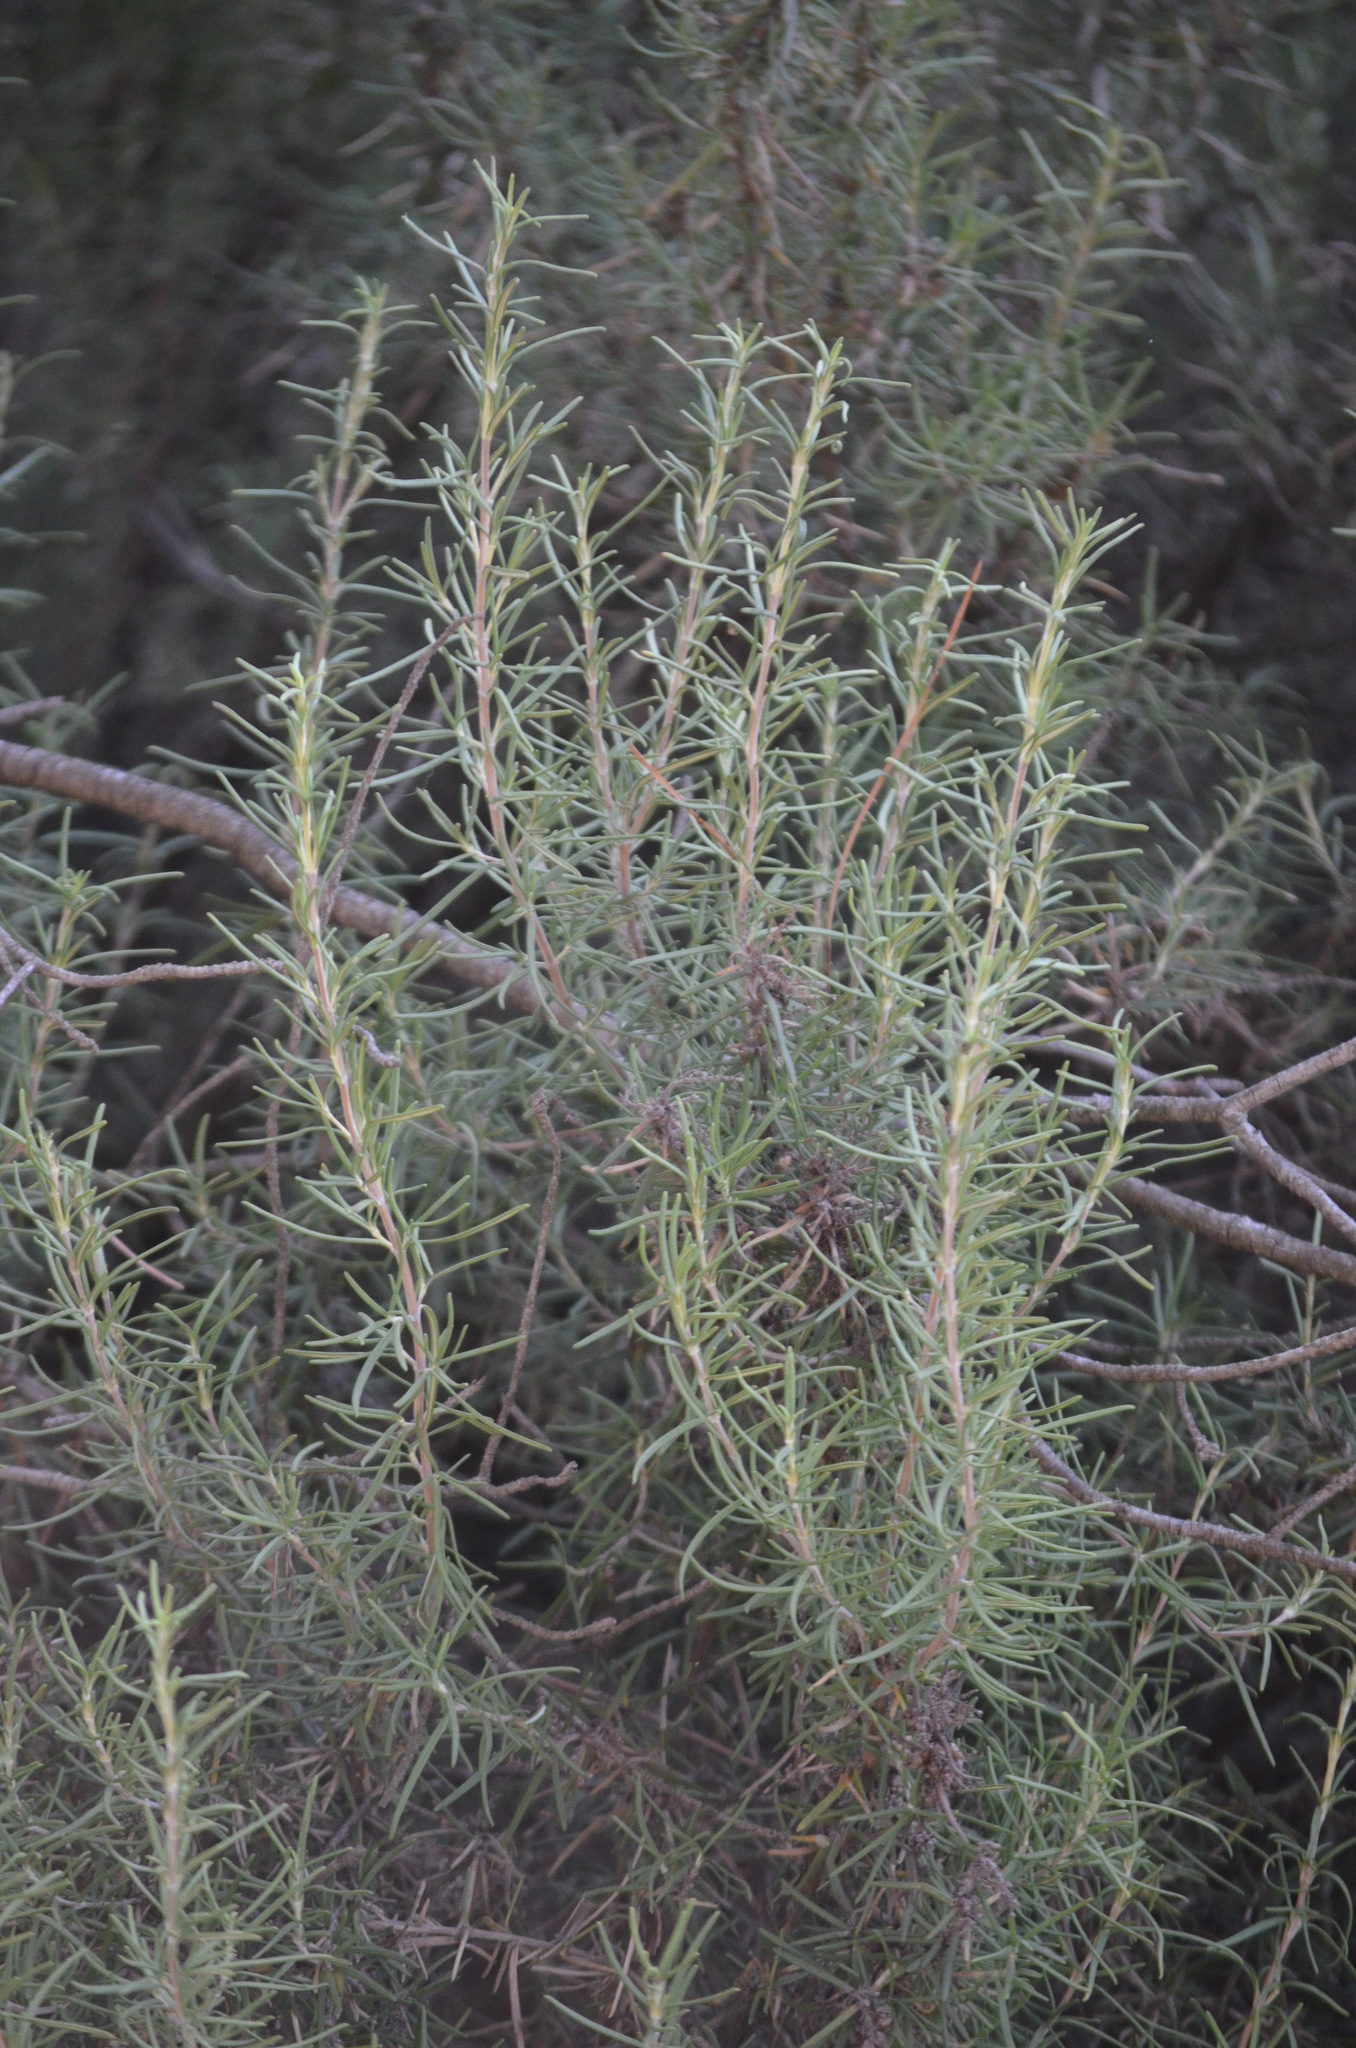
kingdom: Plantae
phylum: Tracheophyta
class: Magnoliopsida
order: Lamiales
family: Lamiaceae
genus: Salvia
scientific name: Salvia rosmarinus
